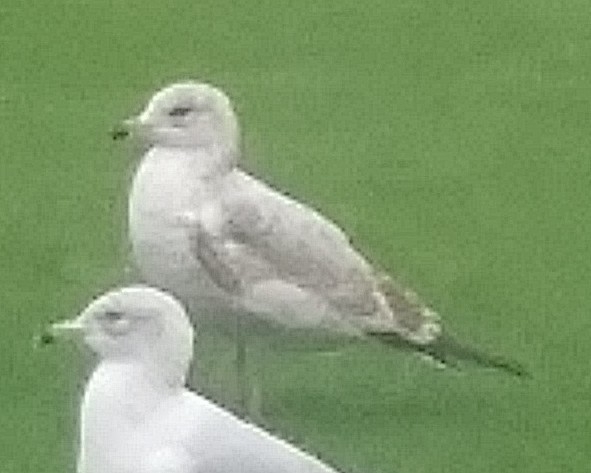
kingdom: Animalia
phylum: Chordata
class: Aves
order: Charadriiformes
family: Laridae
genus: Larus
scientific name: Larus delawarensis
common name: Ring-billed gull
